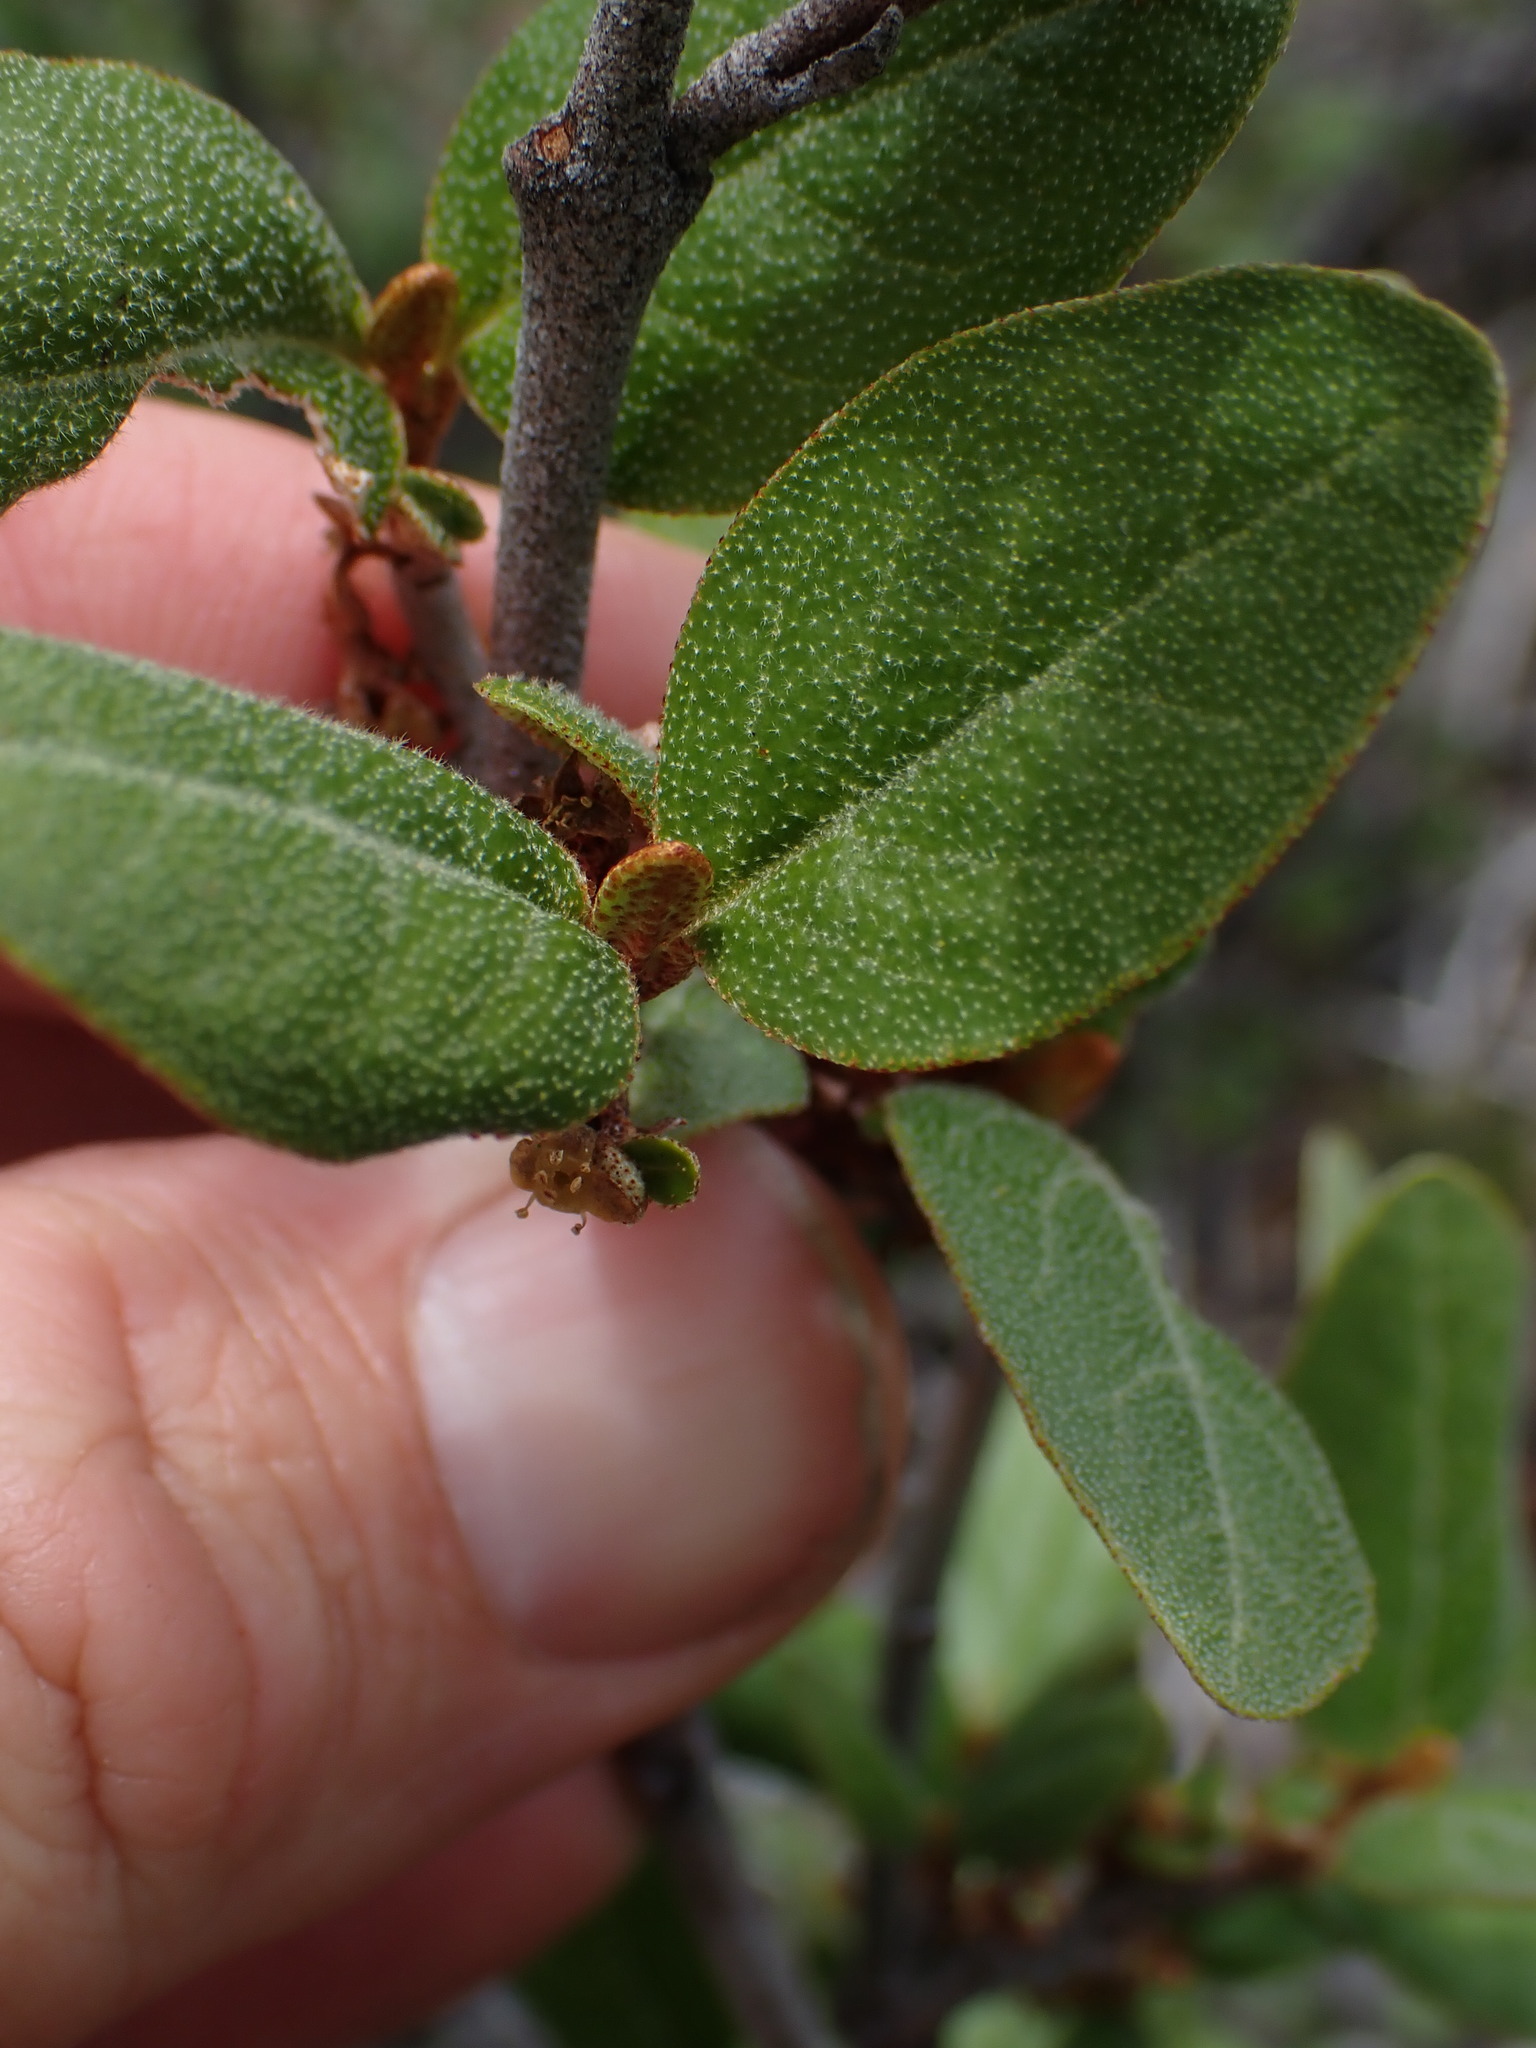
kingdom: Plantae
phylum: Tracheophyta
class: Magnoliopsida
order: Rosales
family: Elaeagnaceae
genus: Shepherdia
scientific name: Shepherdia canadensis
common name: Soapberry
